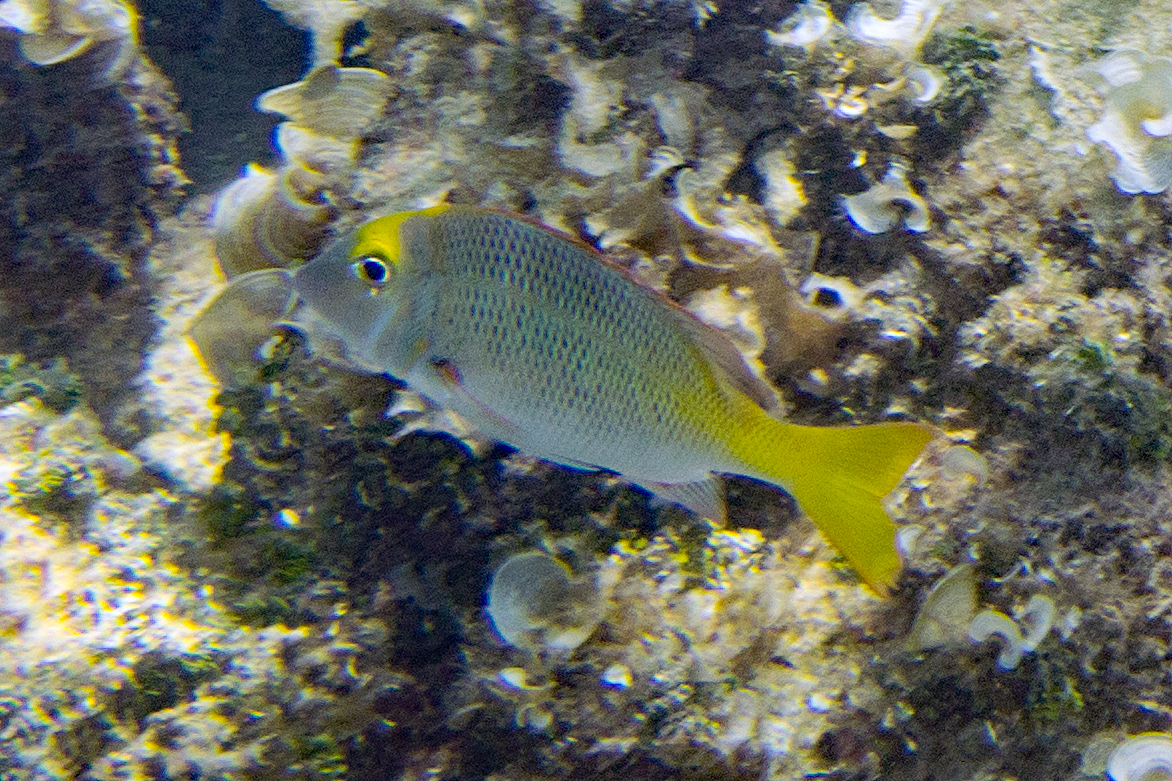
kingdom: Animalia
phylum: Chordata
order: Perciformes
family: Lethrinidae
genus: Lethrinus
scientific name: Lethrinus atkinsoni
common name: Pacific yellowtail emperor
